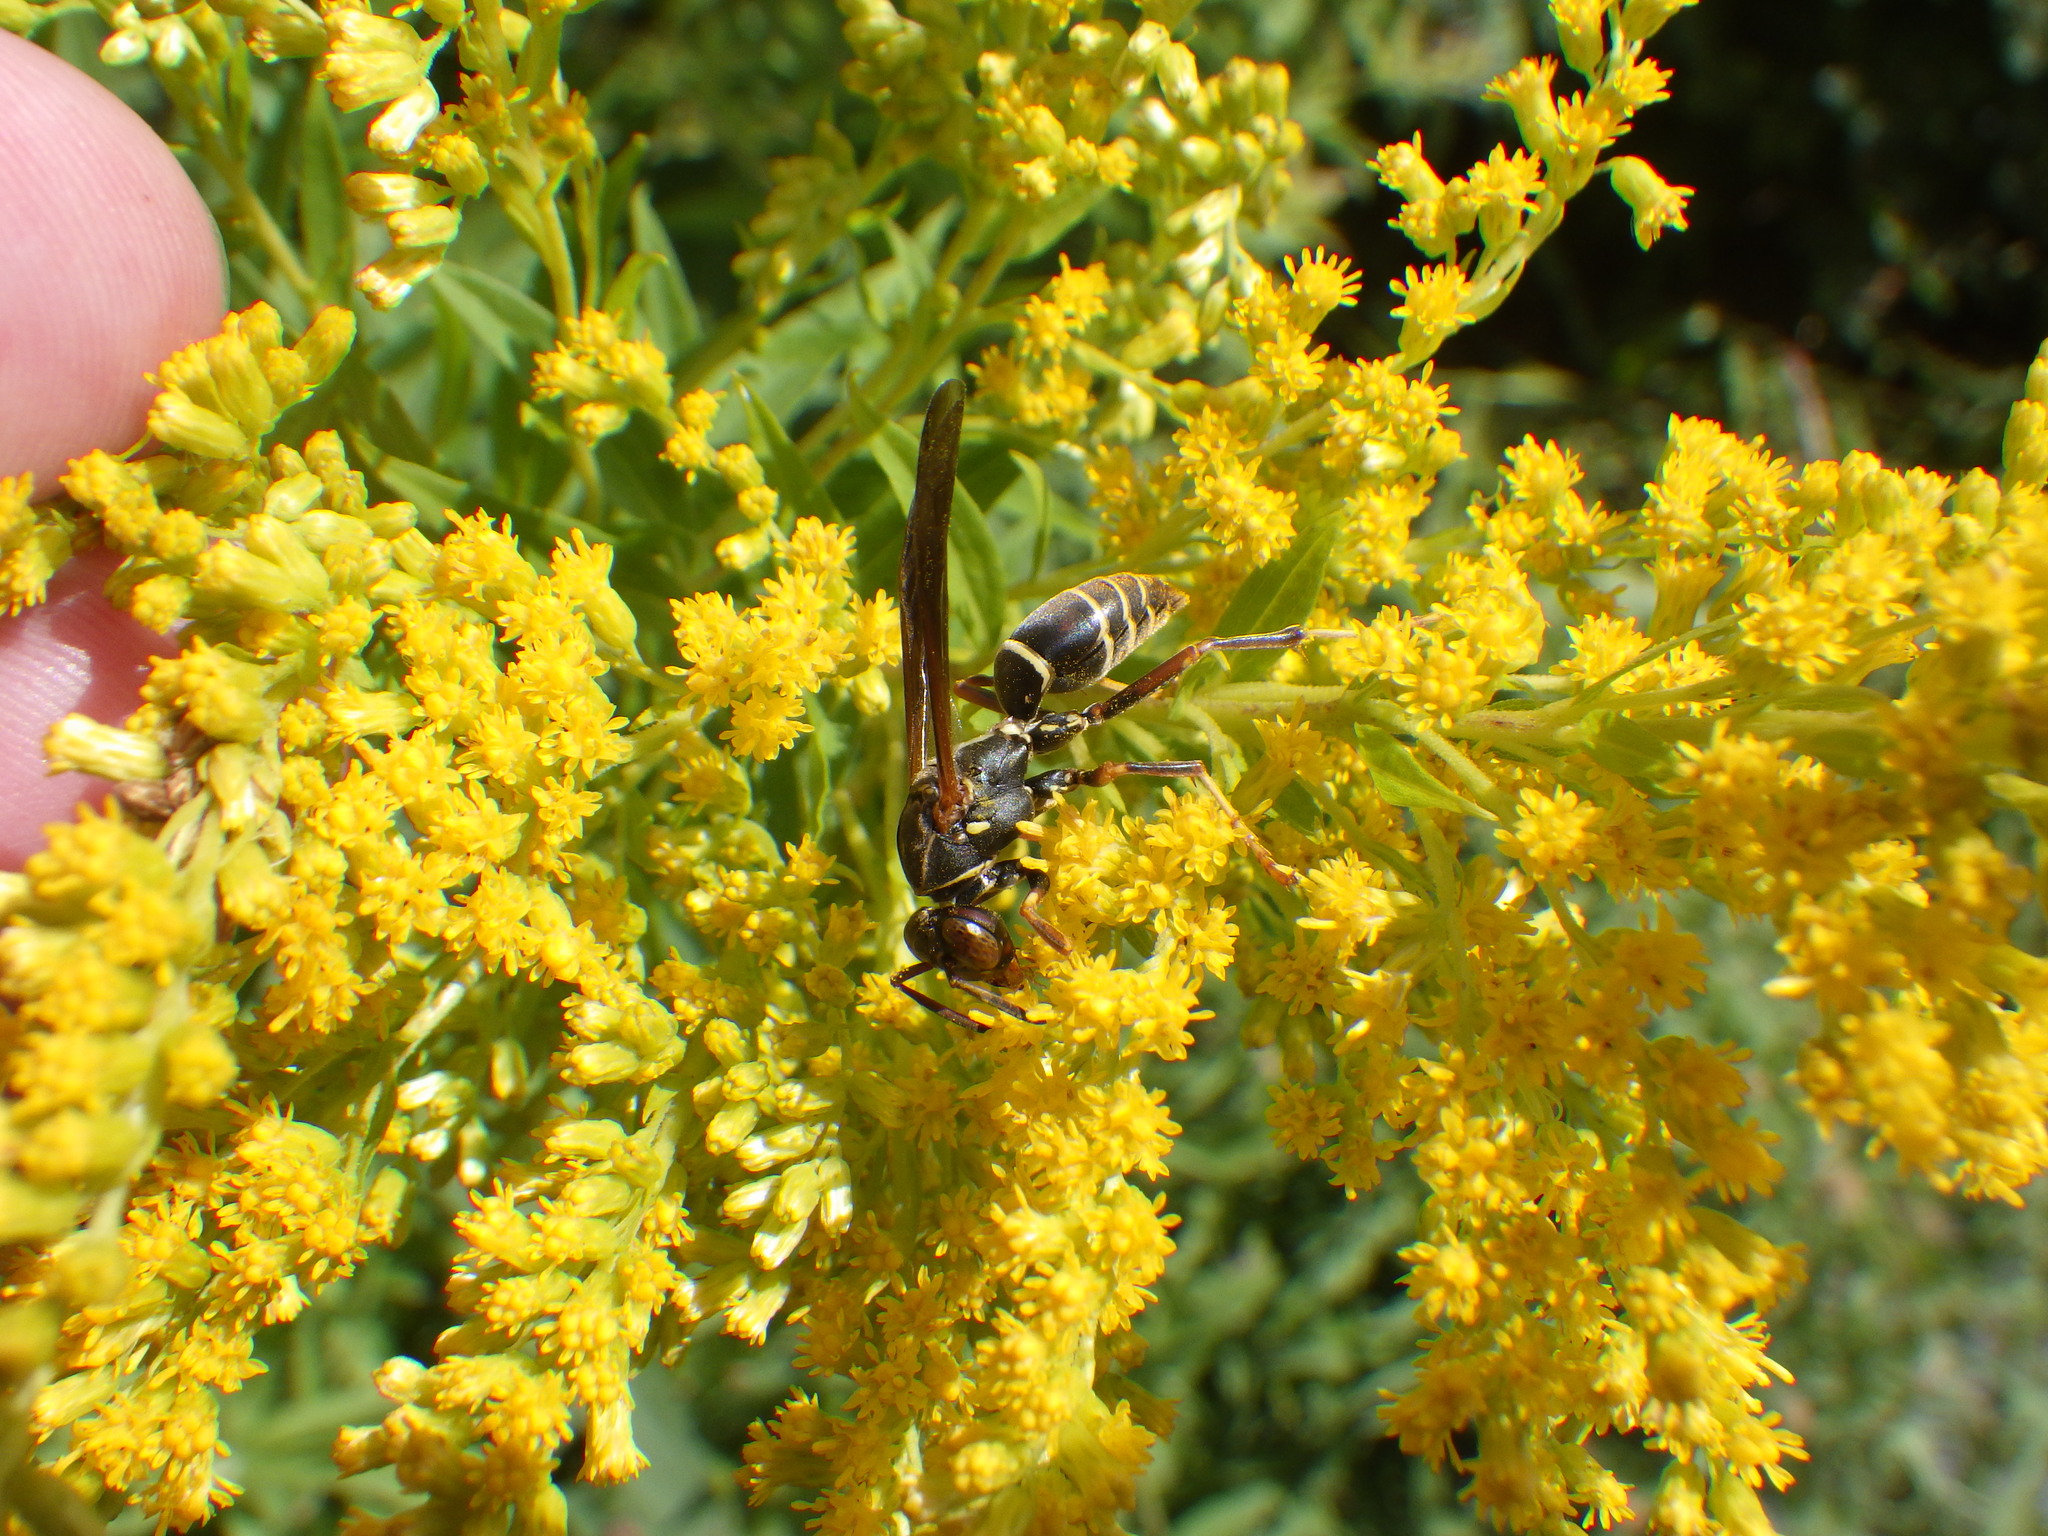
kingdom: Animalia
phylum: Arthropoda
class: Insecta
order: Hymenoptera
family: Eumenidae
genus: Polistes
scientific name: Polistes fuscatus
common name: Dark paper wasp
